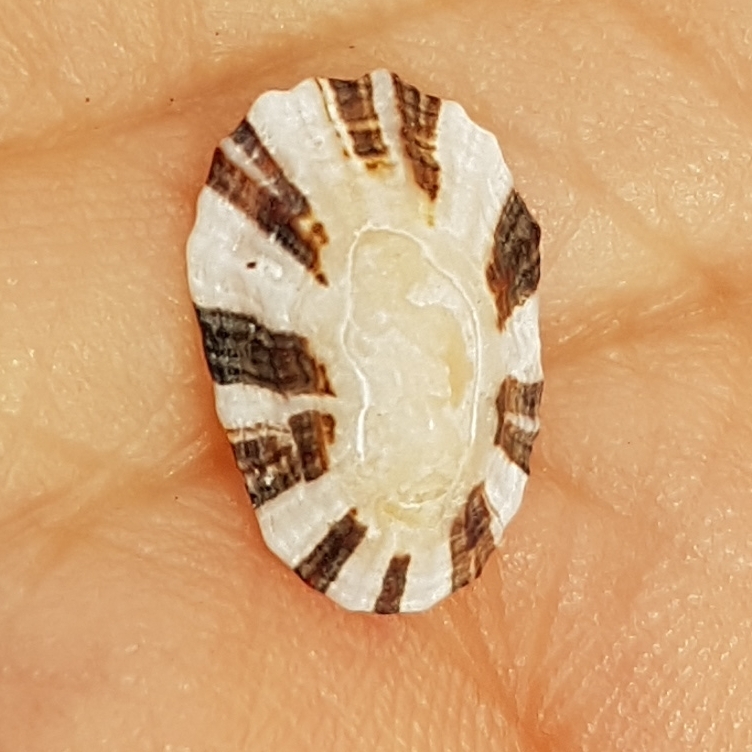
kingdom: Animalia
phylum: Mollusca
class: Gastropoda
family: Patellidae
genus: Patella
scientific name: Patella ulyssiponensis
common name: China limpet
